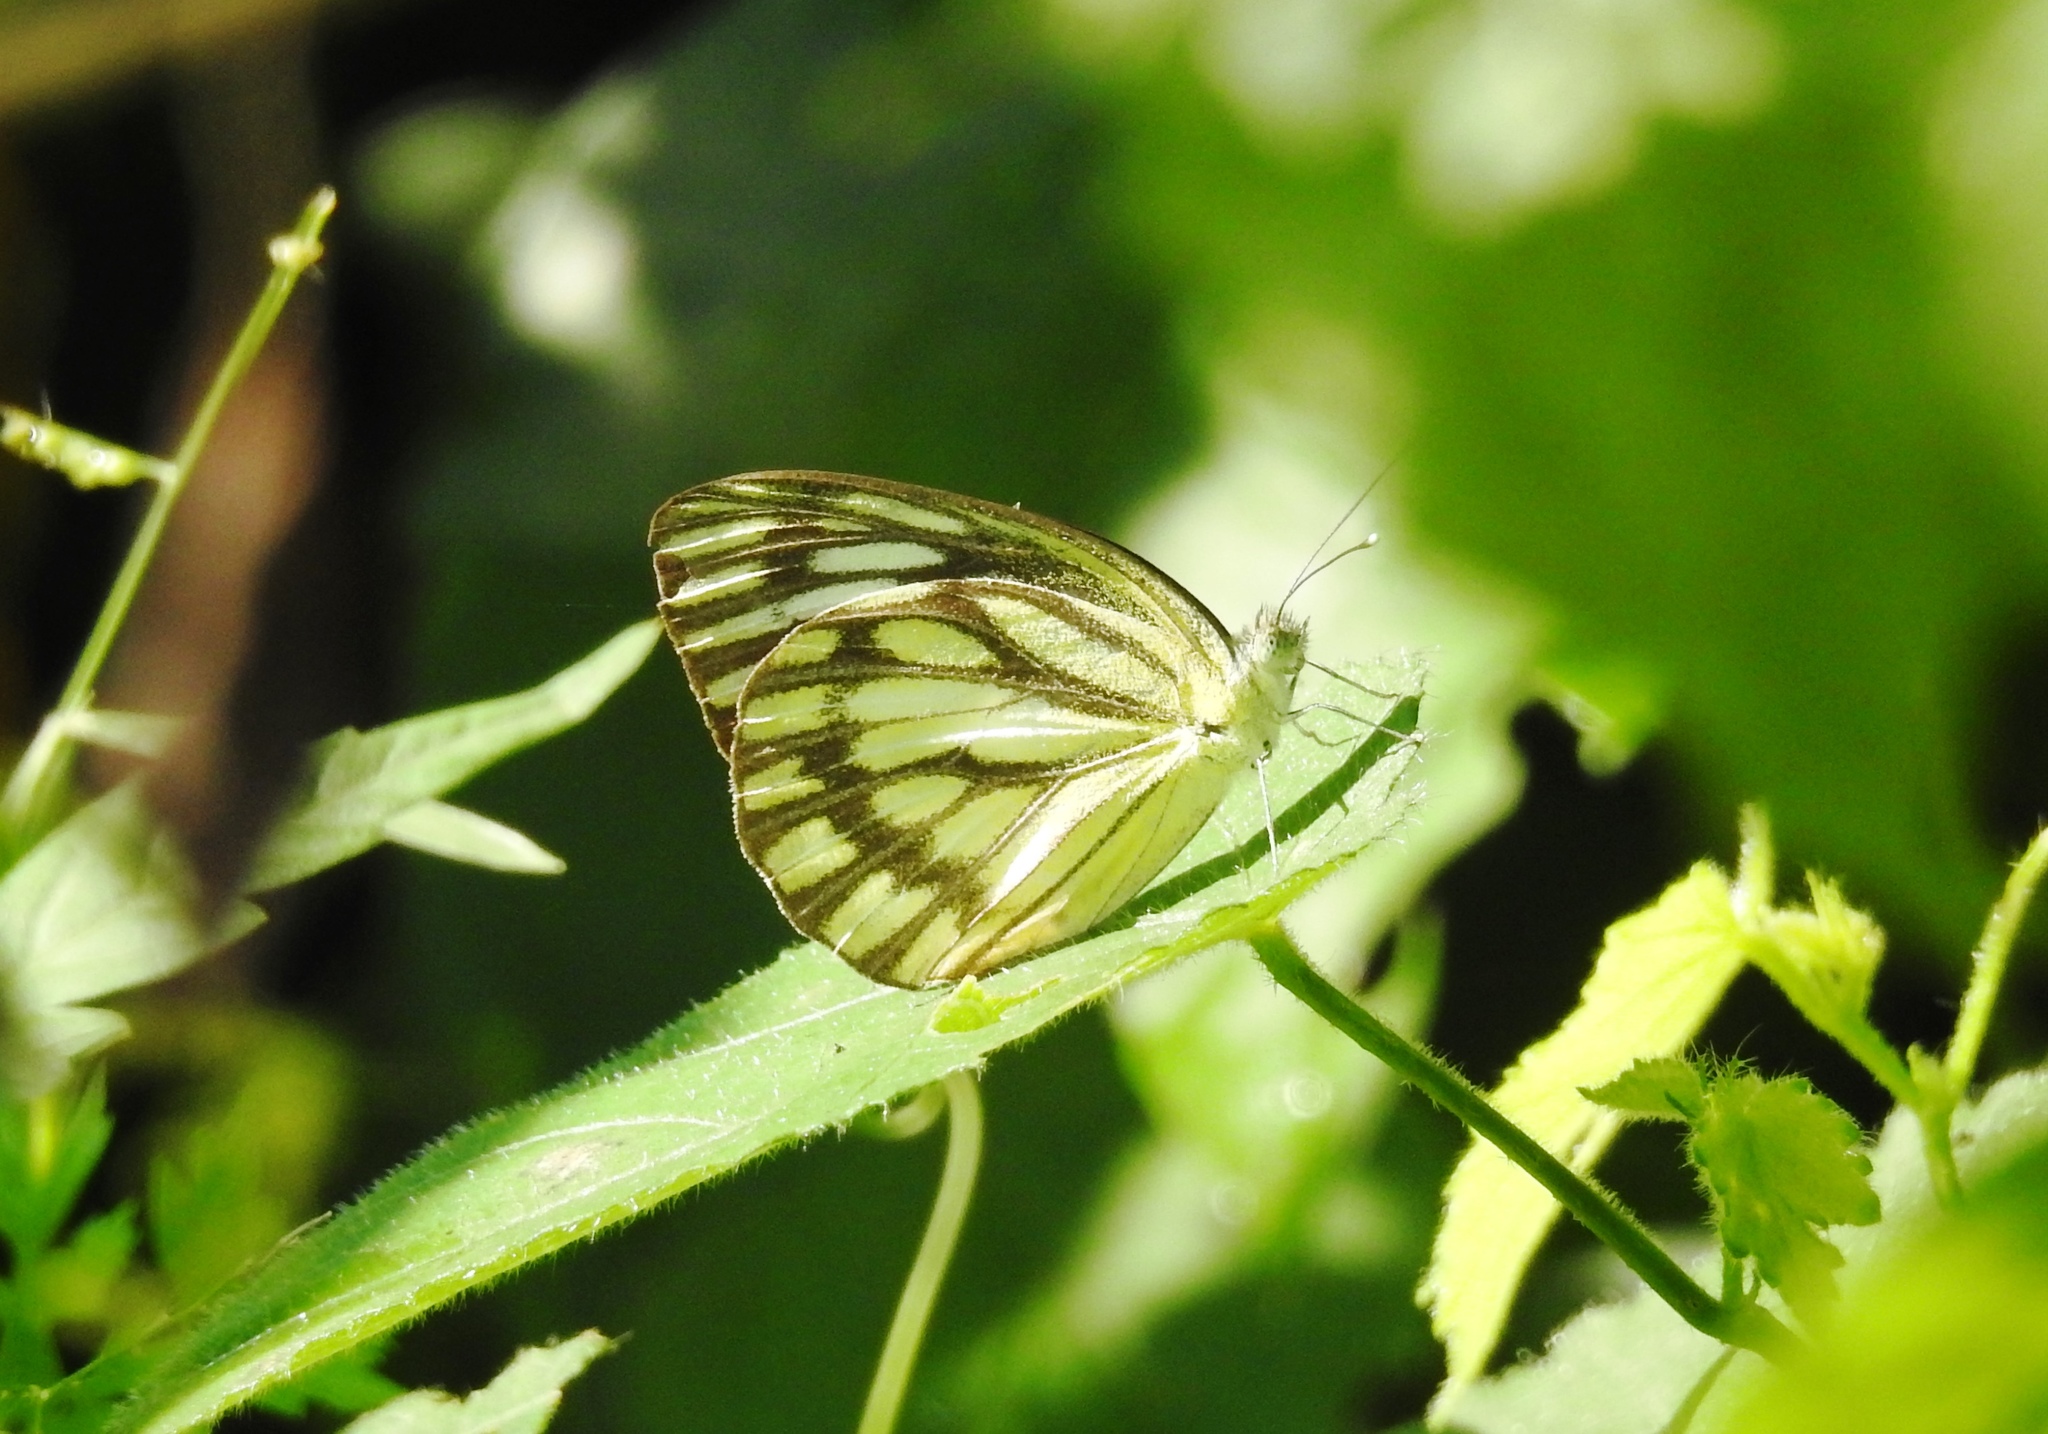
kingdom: Animalia
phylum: Arthropoda
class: Insecta
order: Lepidoptera
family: Pieridae
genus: Cepora
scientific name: Cepora nerissa
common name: Common gull
